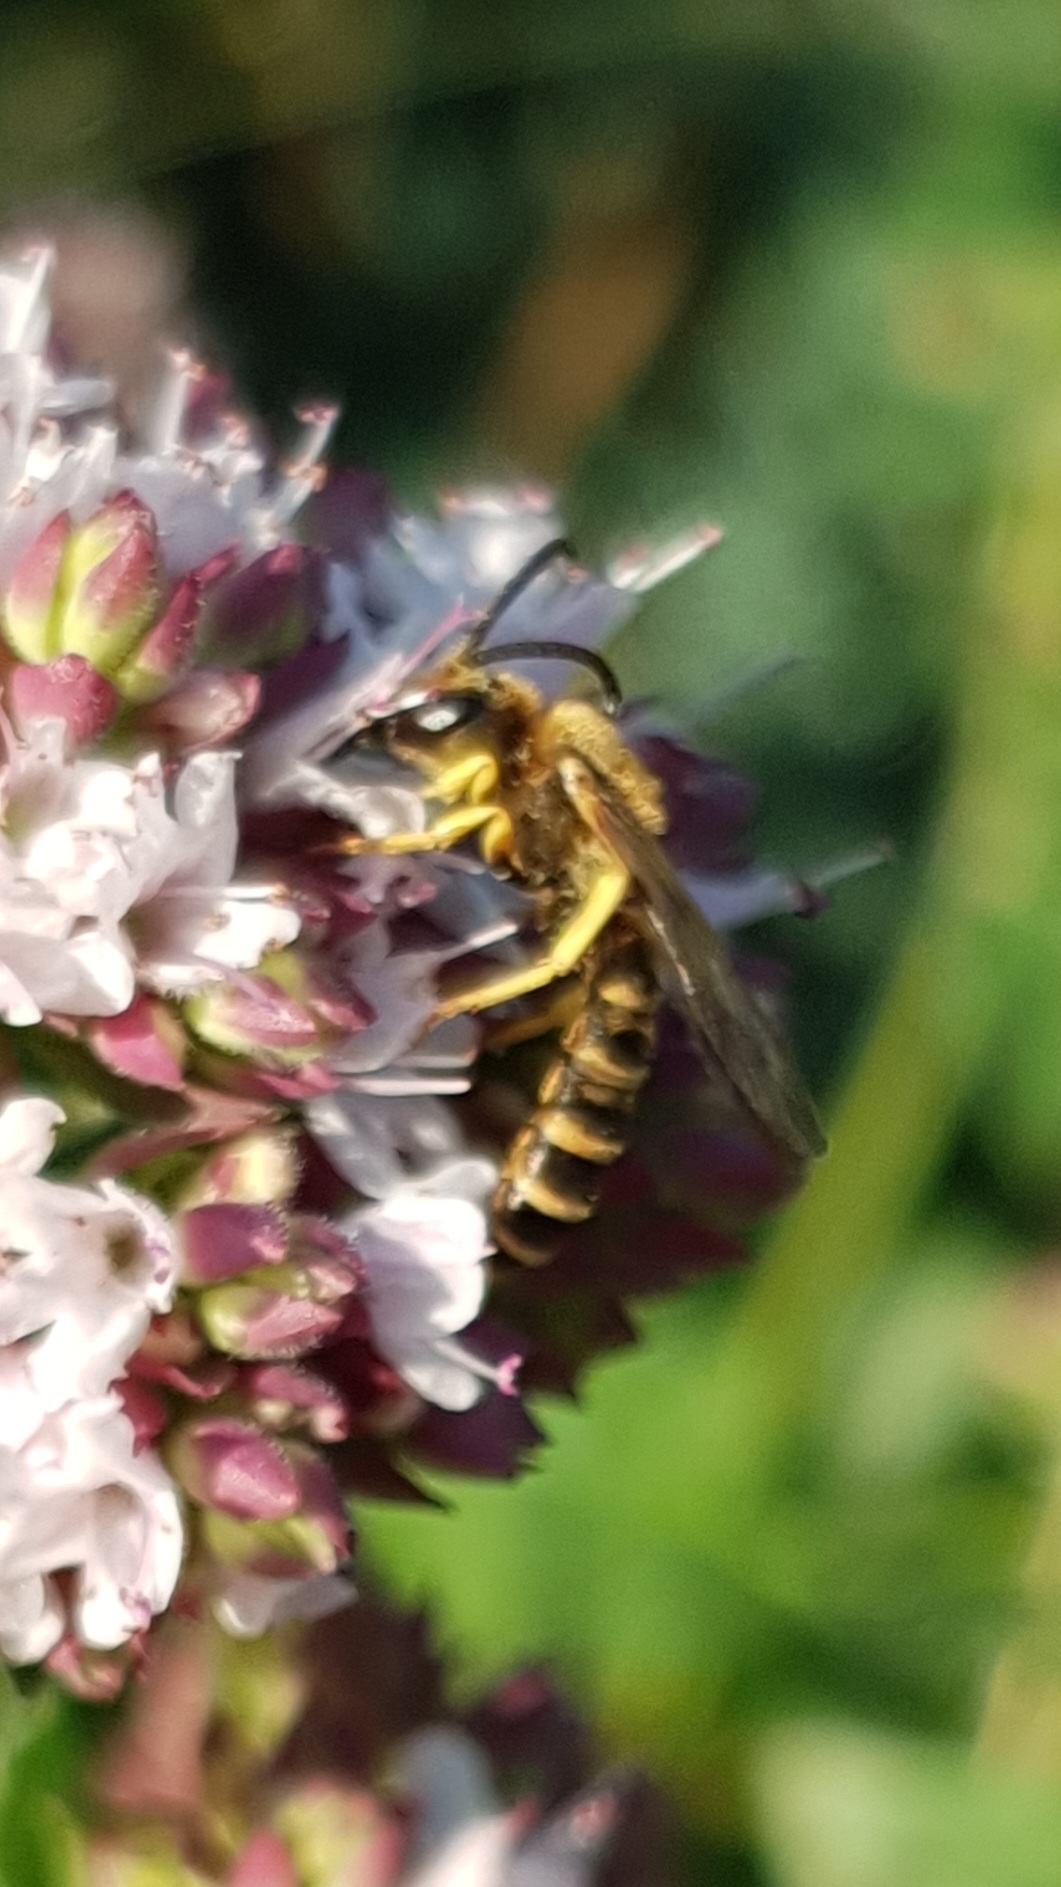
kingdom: Animalia
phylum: Arthropoda
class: Insecta
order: Hymenoptera
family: Halictidae
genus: Halictus
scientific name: Halictus scabiosae
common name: Great banded furrow bee
